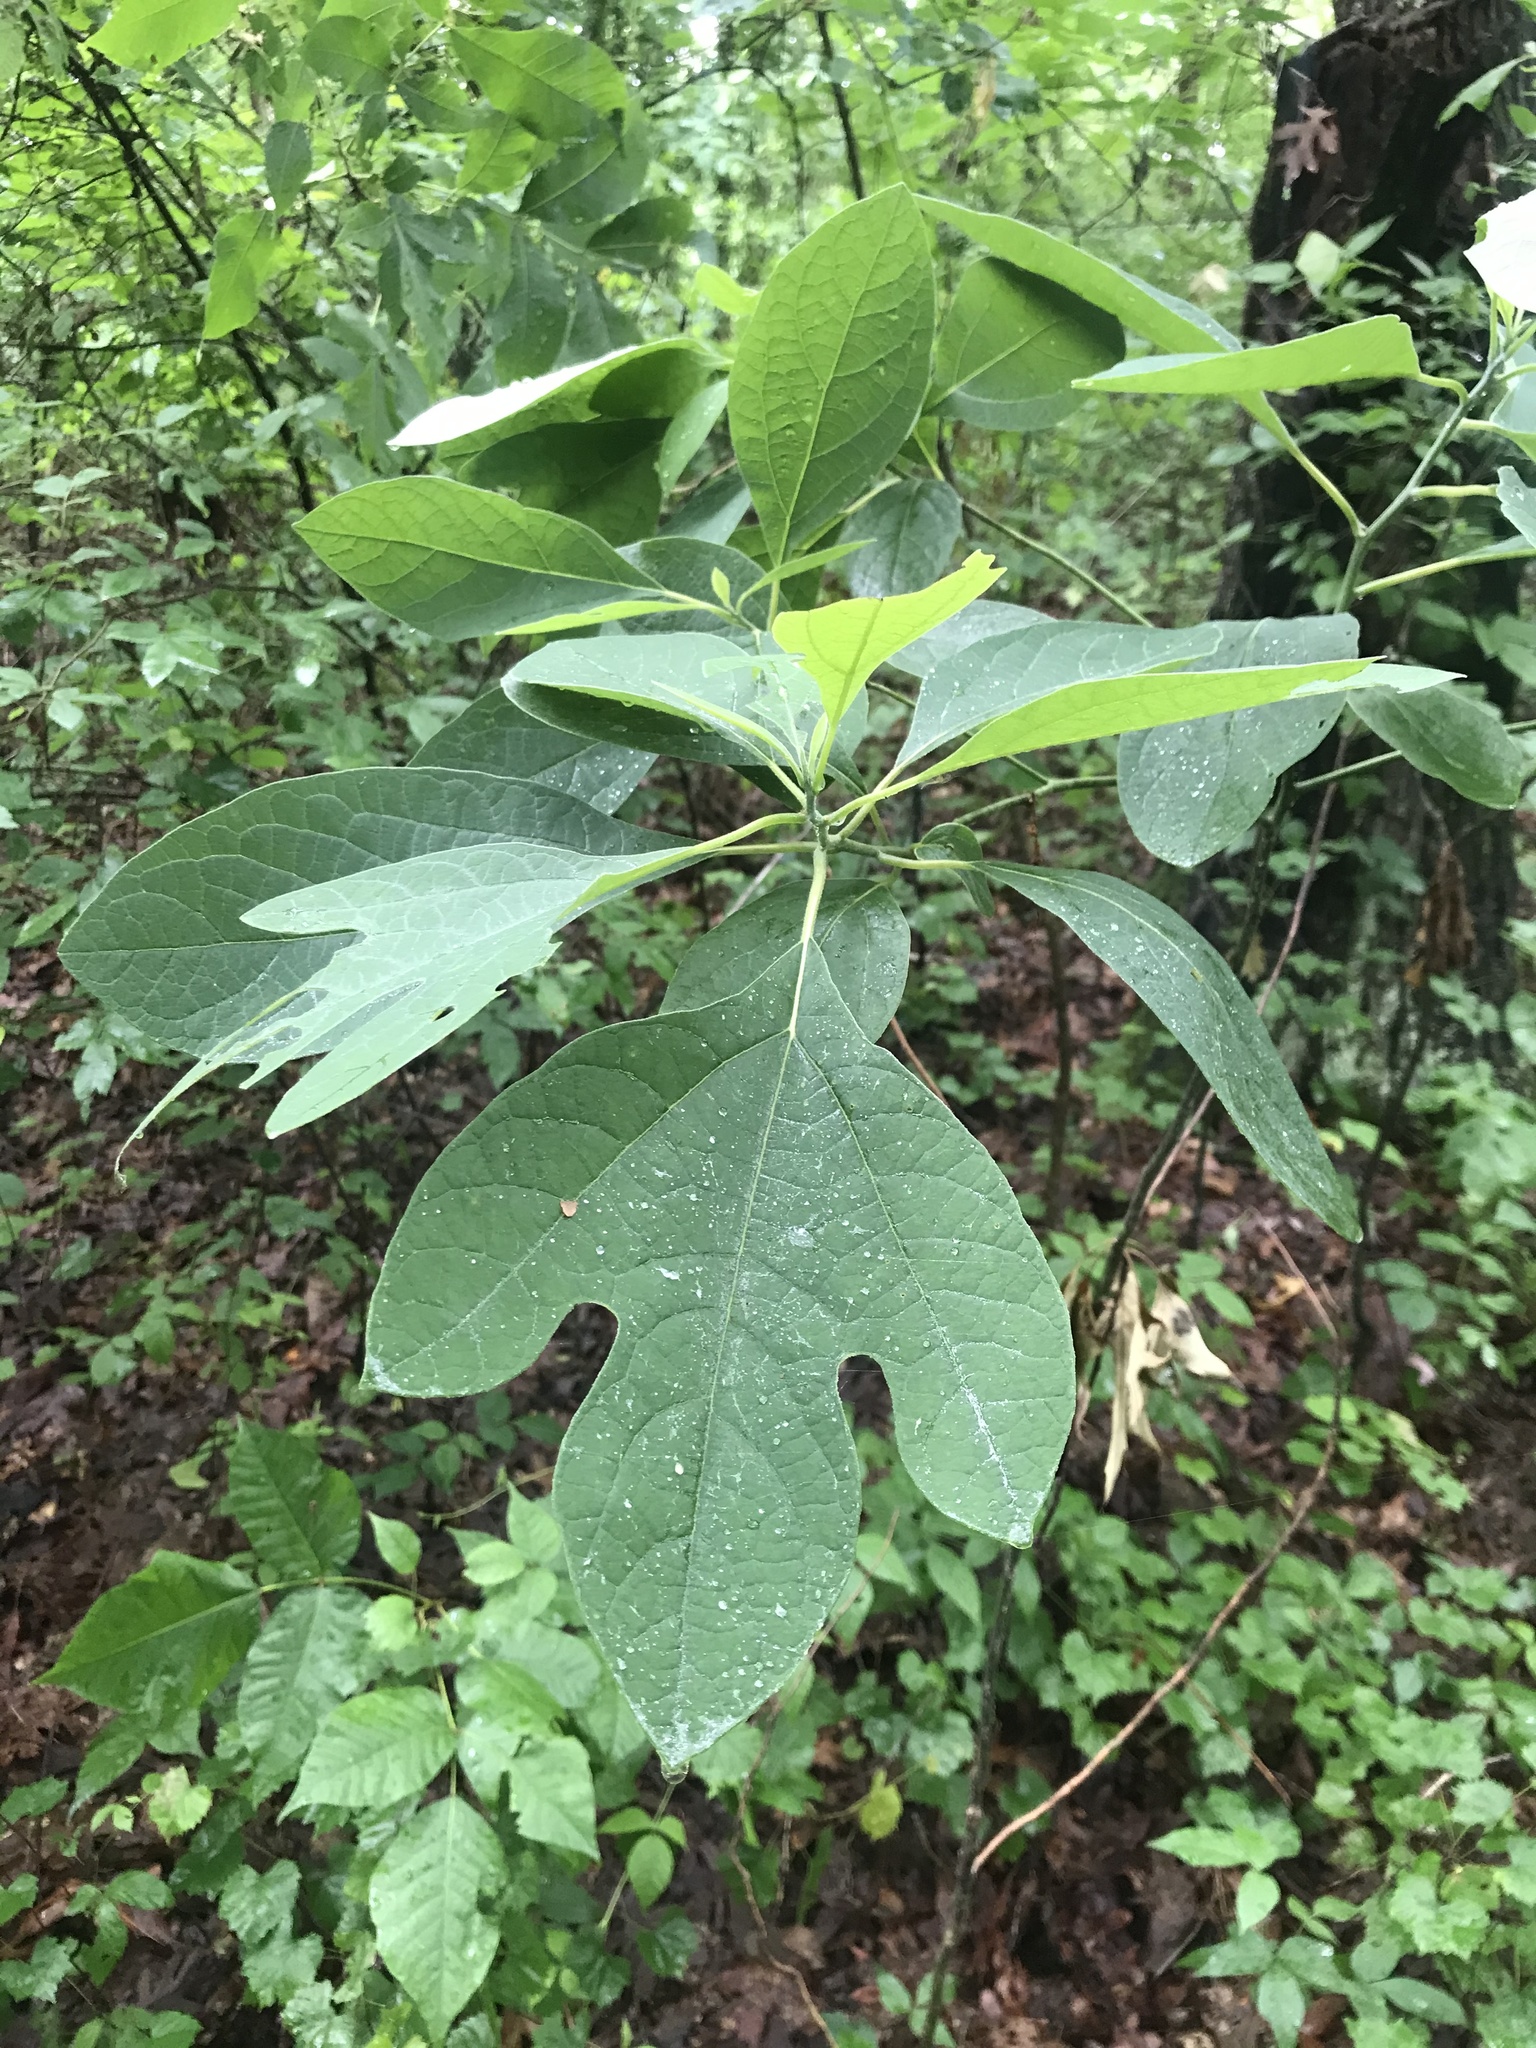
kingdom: Plantae
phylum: Tracheophyta
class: Magnoliopsida
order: Laurales
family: Lauraceae
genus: Sassafras
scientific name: Sassafras albidum
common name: Sassafras
